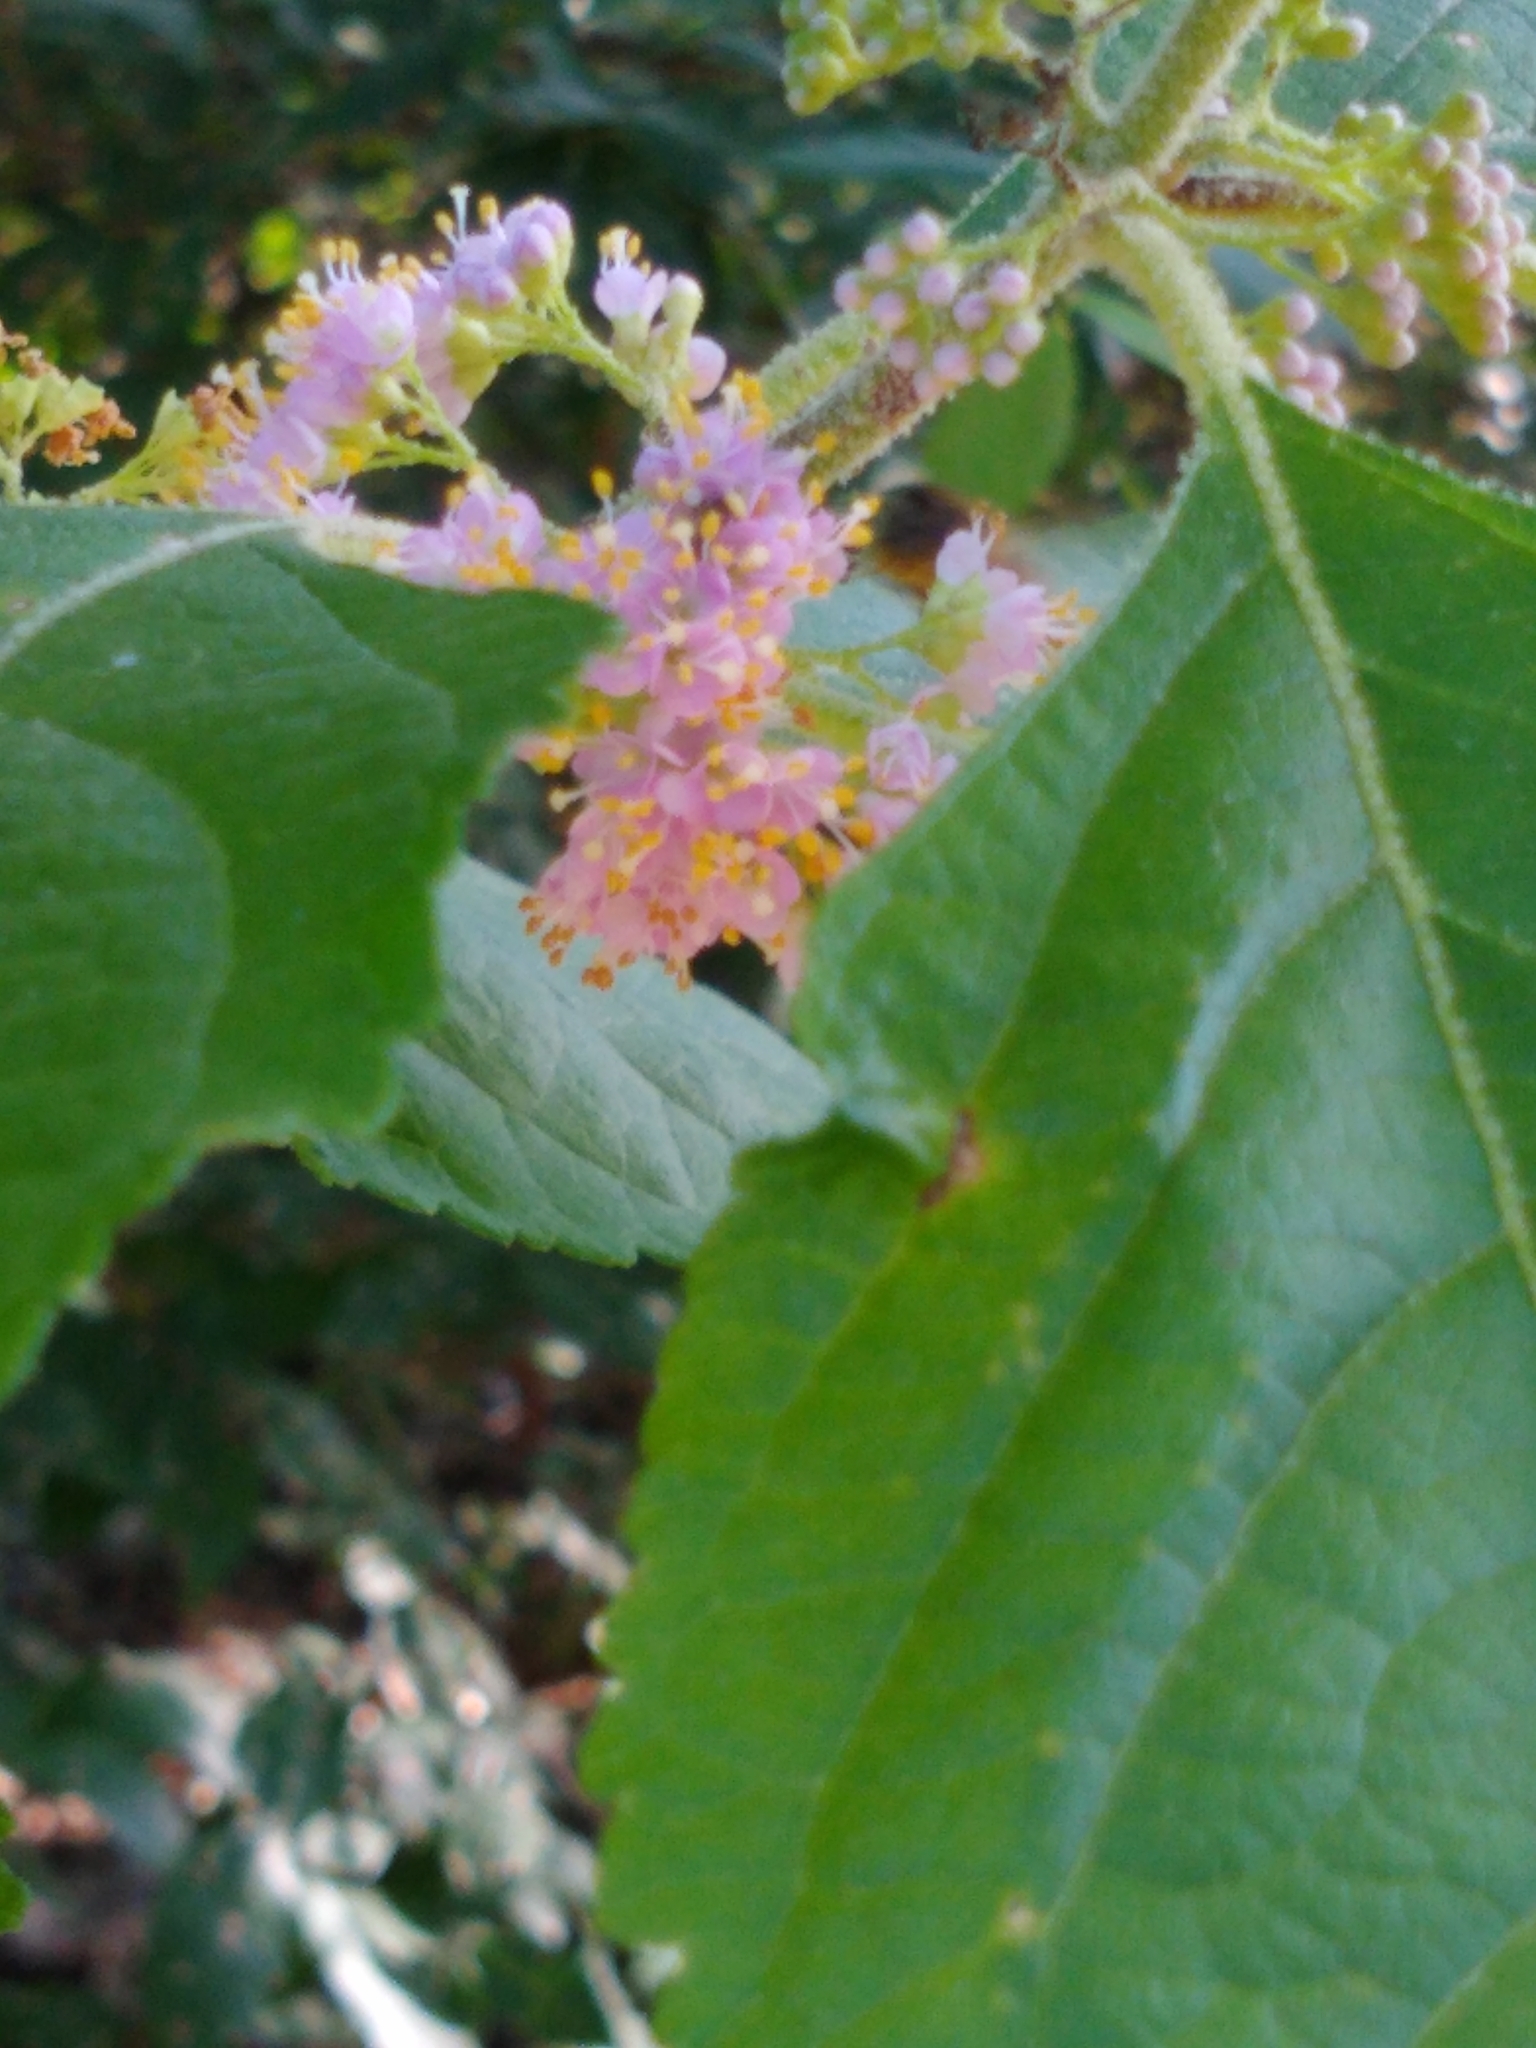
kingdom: Plantae
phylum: Tracheophyta
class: Magnoliopsida
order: Lamiales
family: Lamiaceae
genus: Callicarpa
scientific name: Callicarpa americana
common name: American beautyberry
